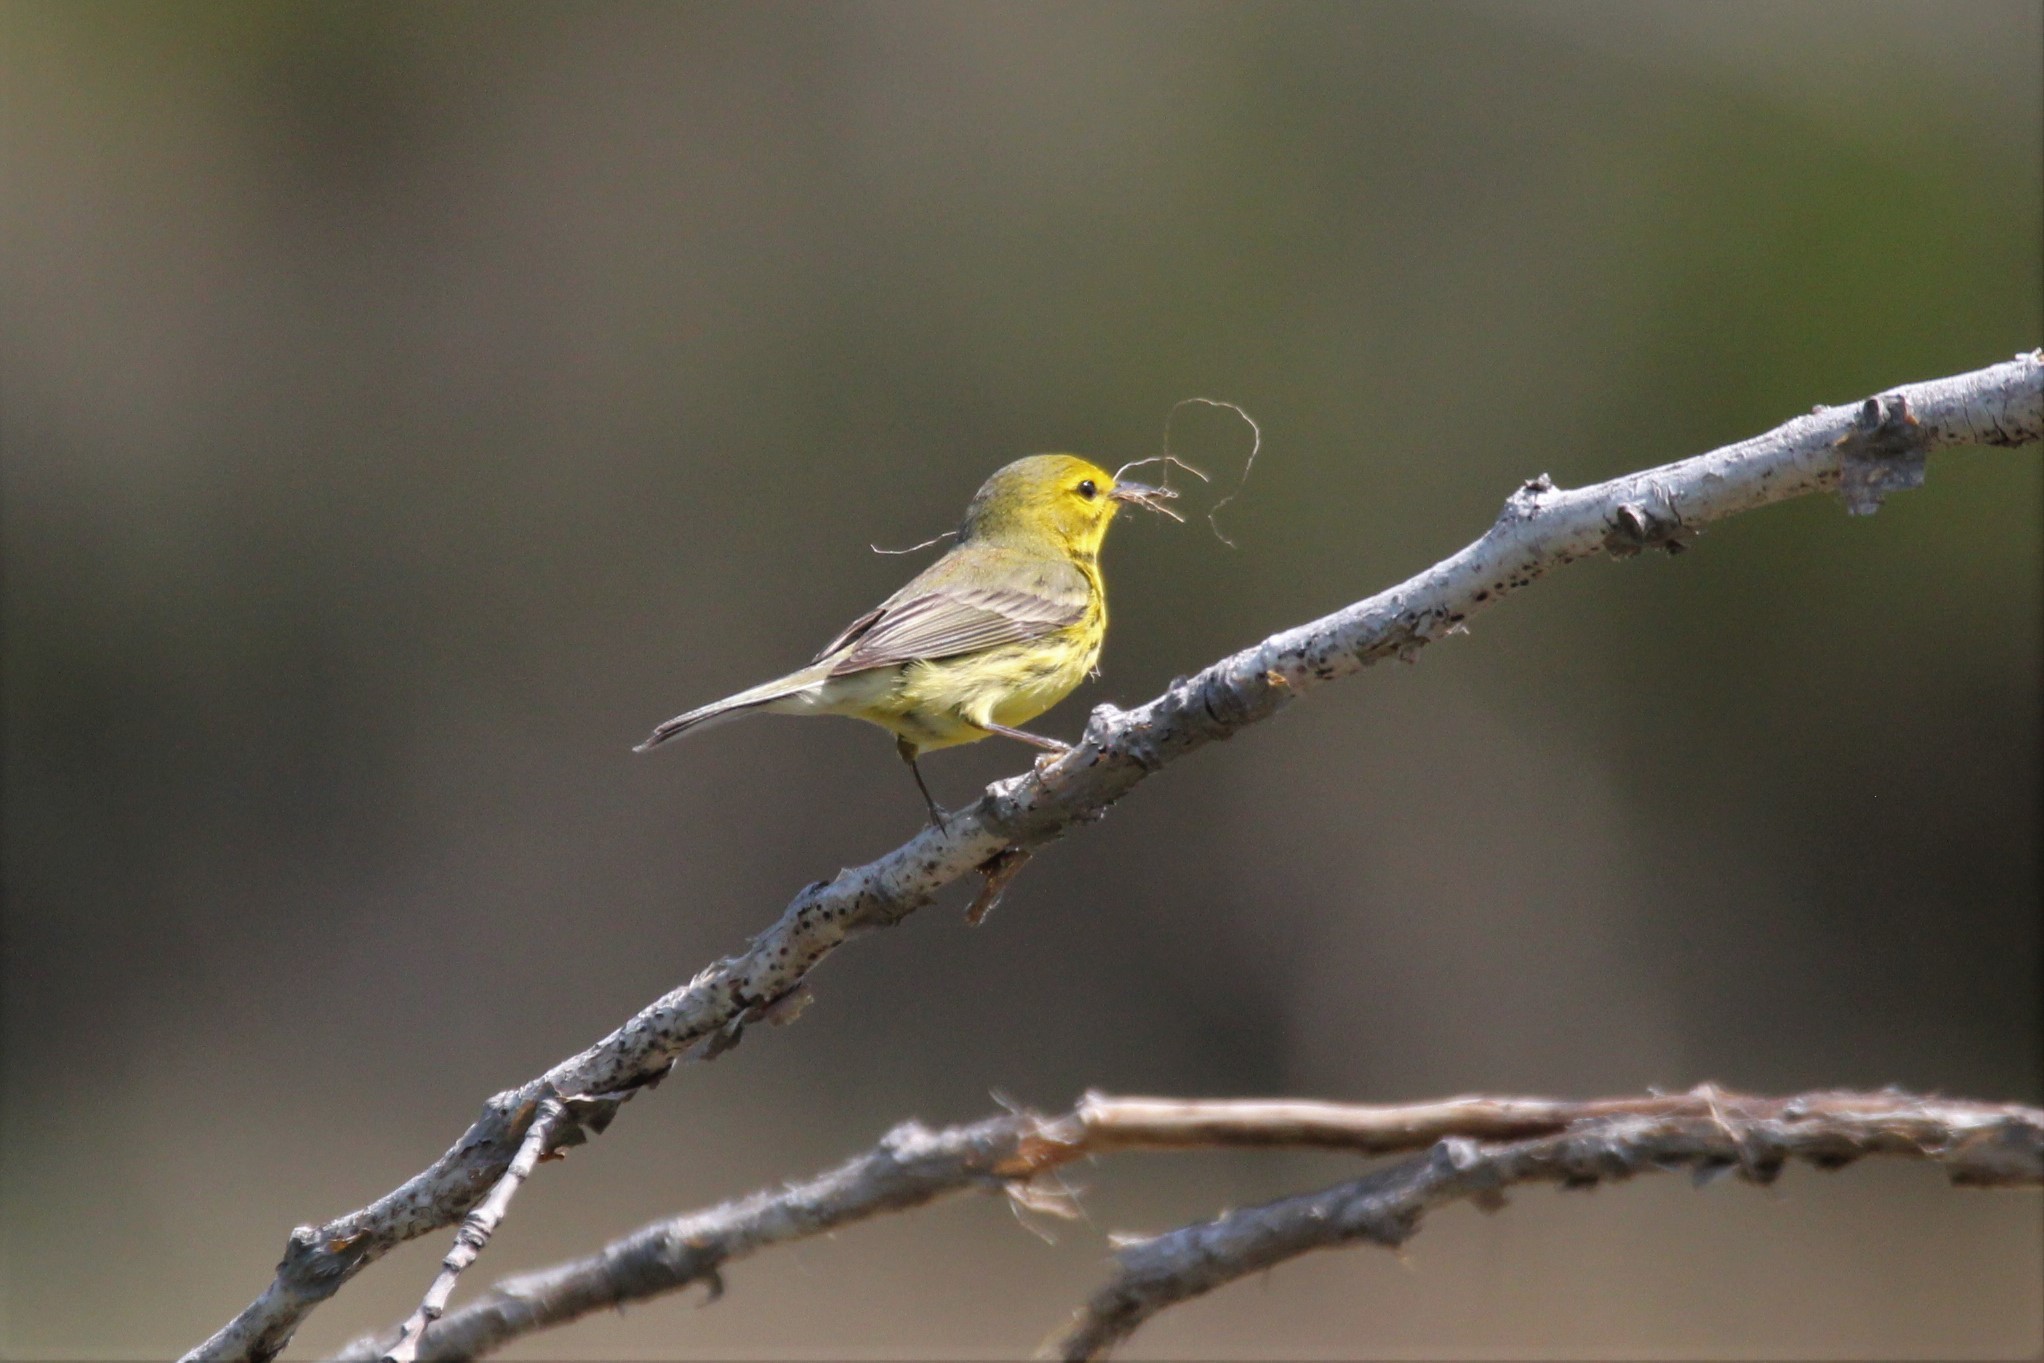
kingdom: Animalia
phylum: Chordata
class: Aves
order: Passeriformes
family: Parulidae
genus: Setophaga
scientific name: Setophaga discolor
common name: Prairie warbler
